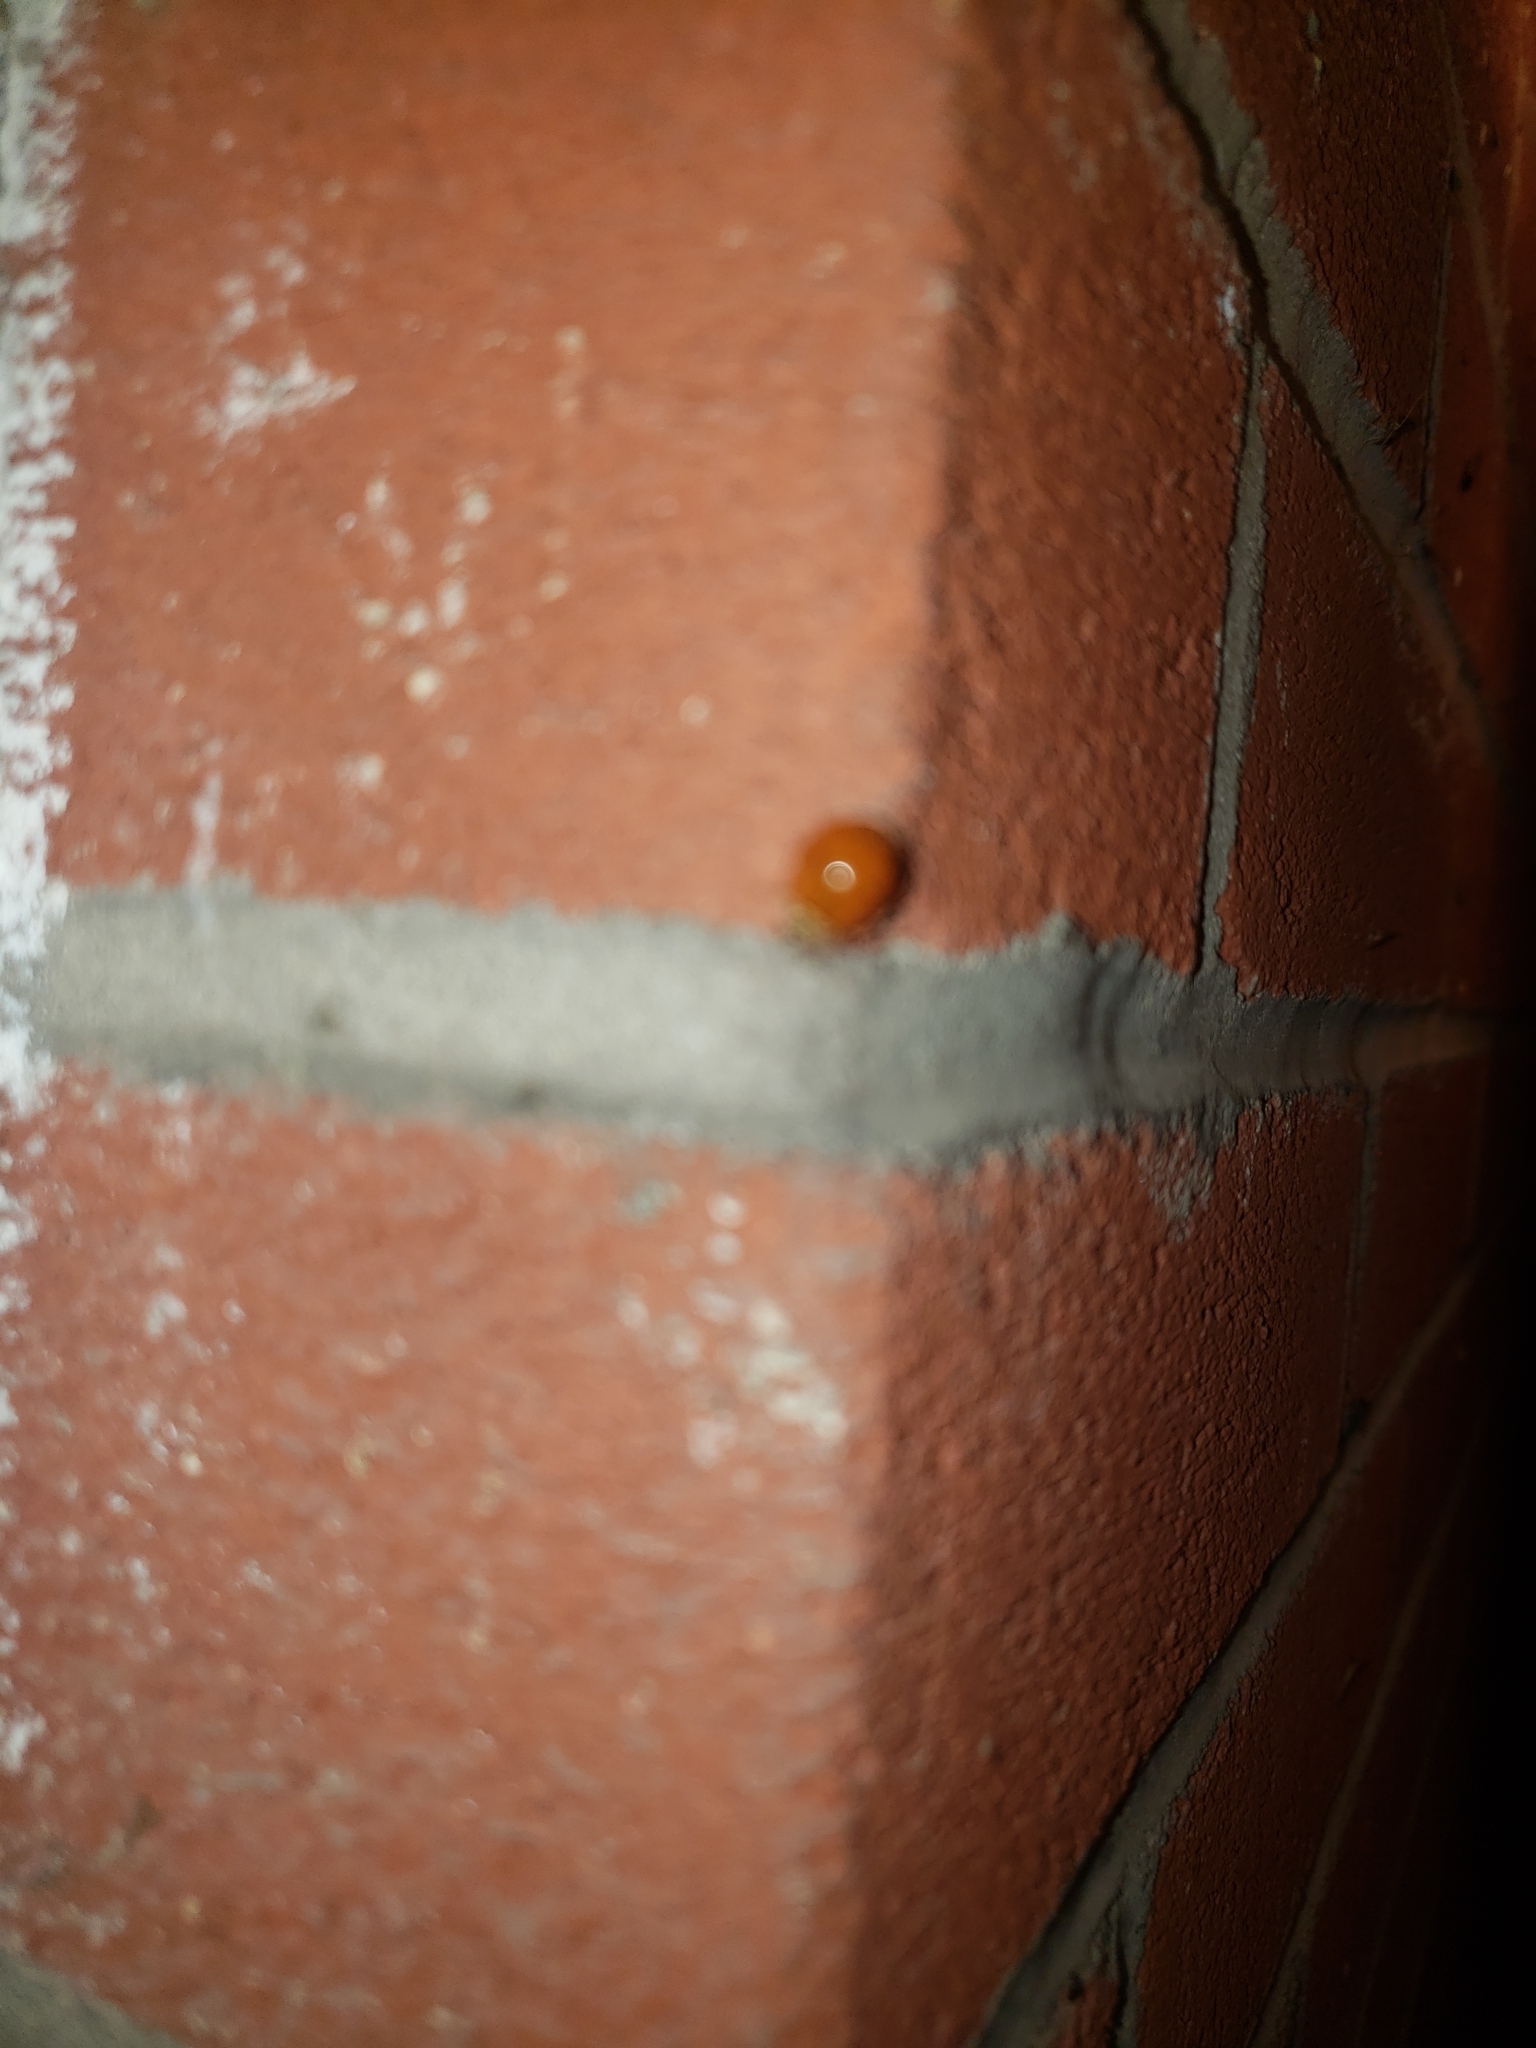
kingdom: Animalia
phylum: Arthropoda
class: Insecta
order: Coleoptera
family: Coccinellidae
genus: Harmonia
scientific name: Harmonia axyridis
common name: Harlequin ladybird
